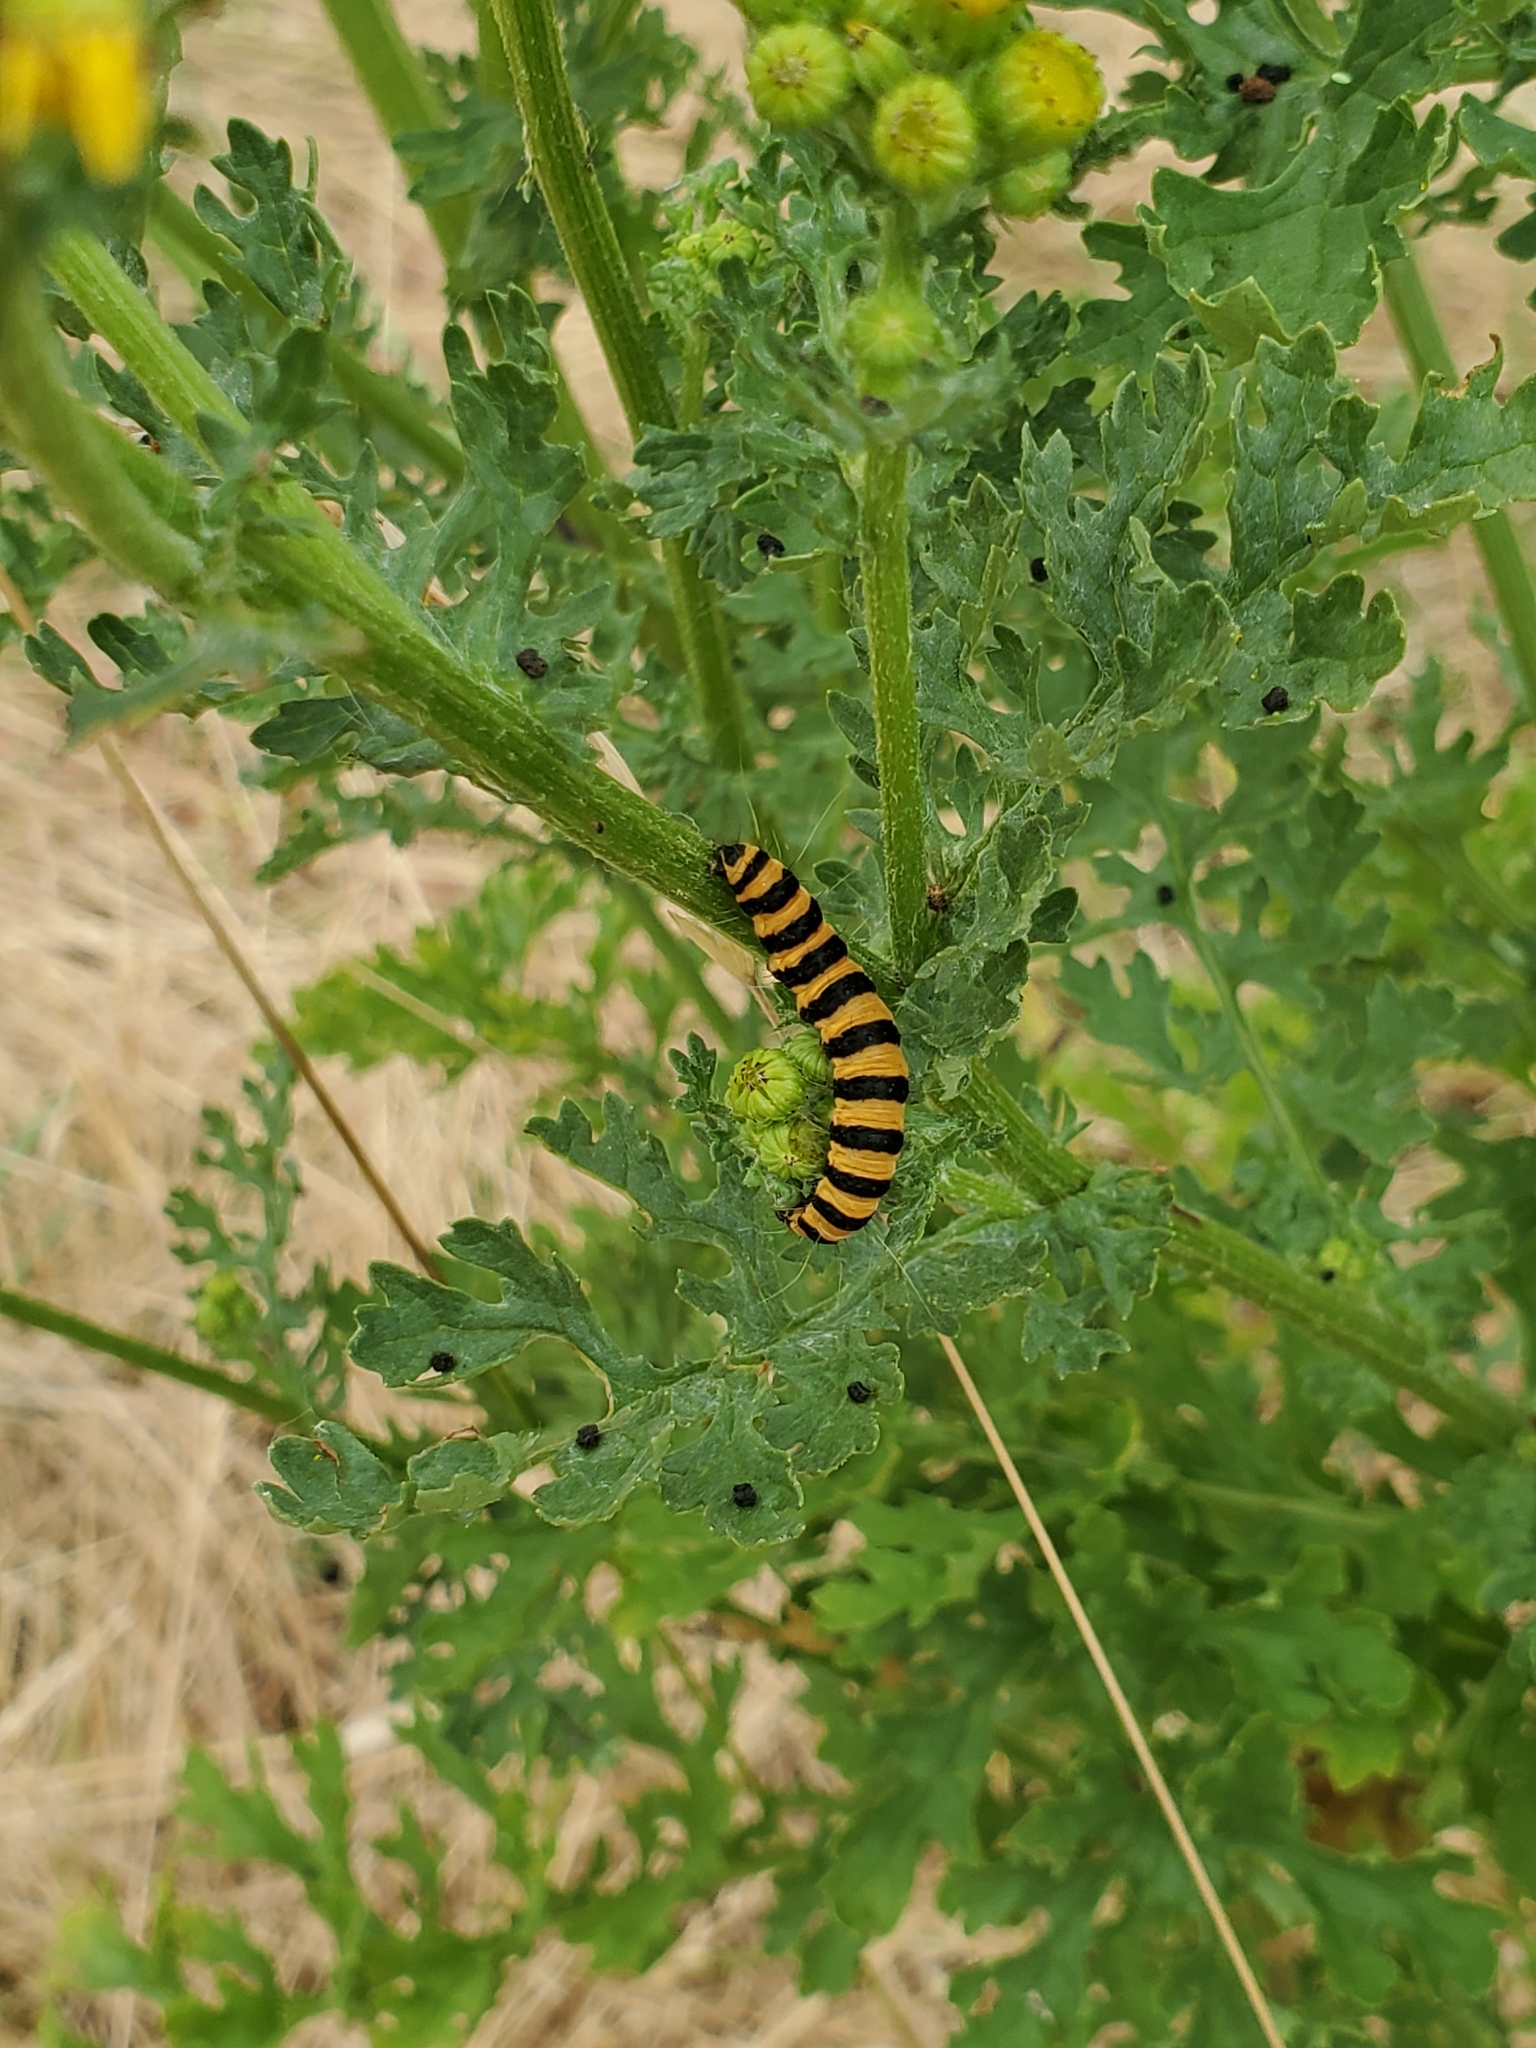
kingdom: Animalia
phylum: Arthropoda
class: Insecta
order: Lepidoptera
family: Erebidae
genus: Tyria
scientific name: Tyria jacobaeae
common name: Cinnabar
